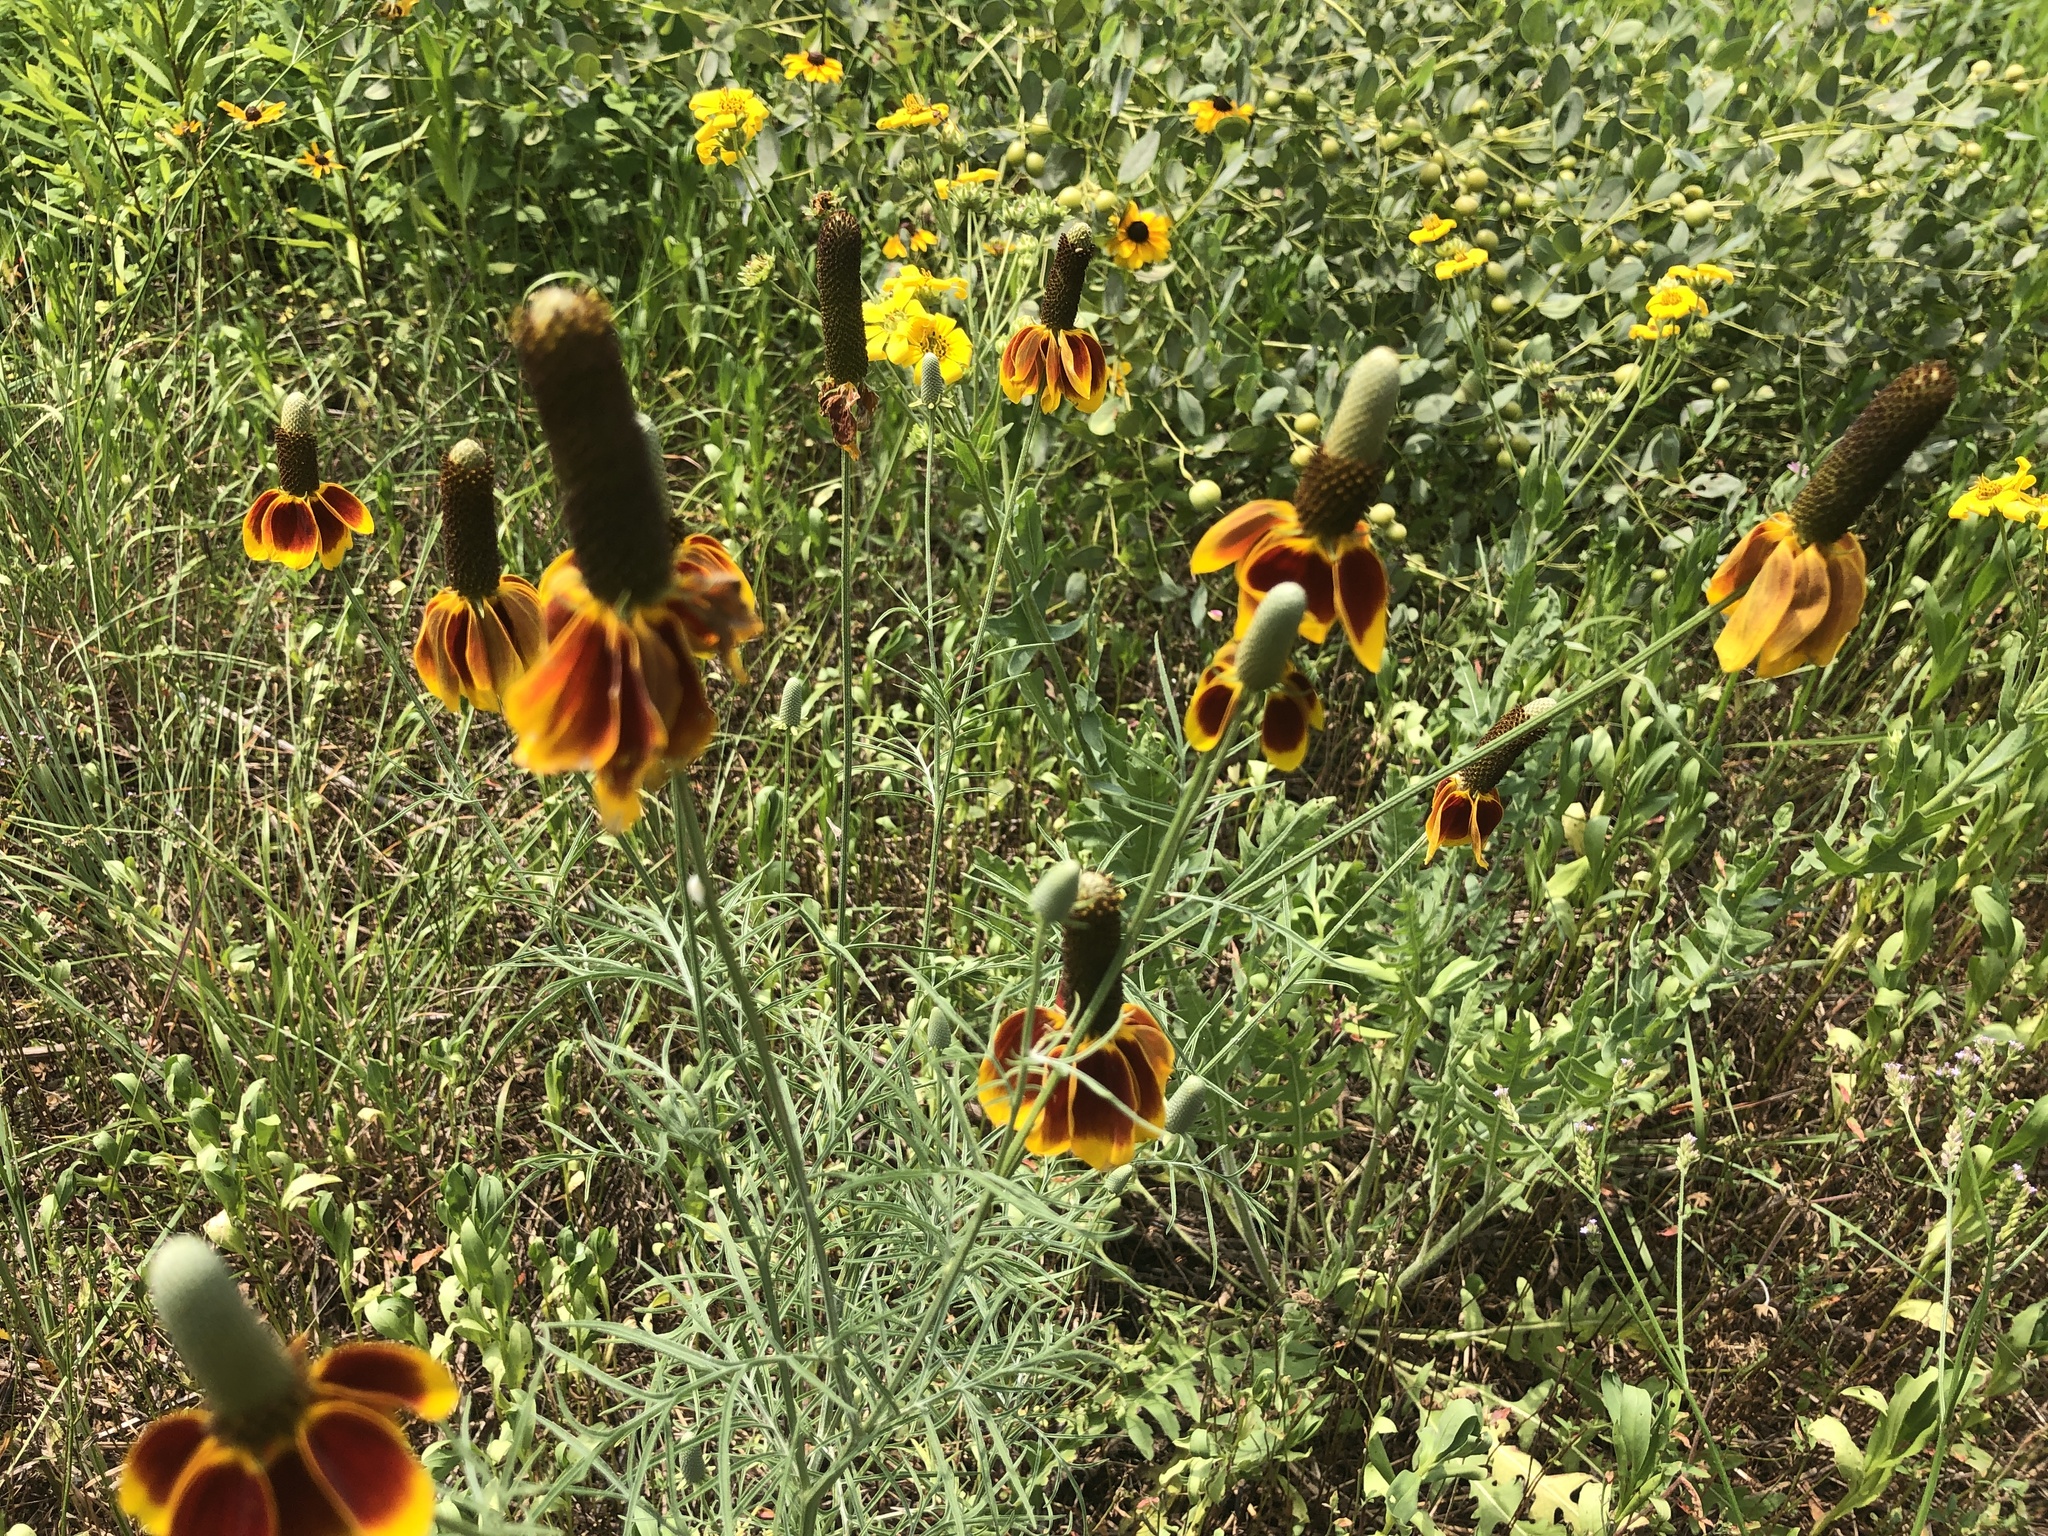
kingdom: Plantae
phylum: Tracheophyta
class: Magnoliopsida
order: Asterales
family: Asteraceae
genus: Ratibida
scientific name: Ratibida columnifera
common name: Prairie coneflower
